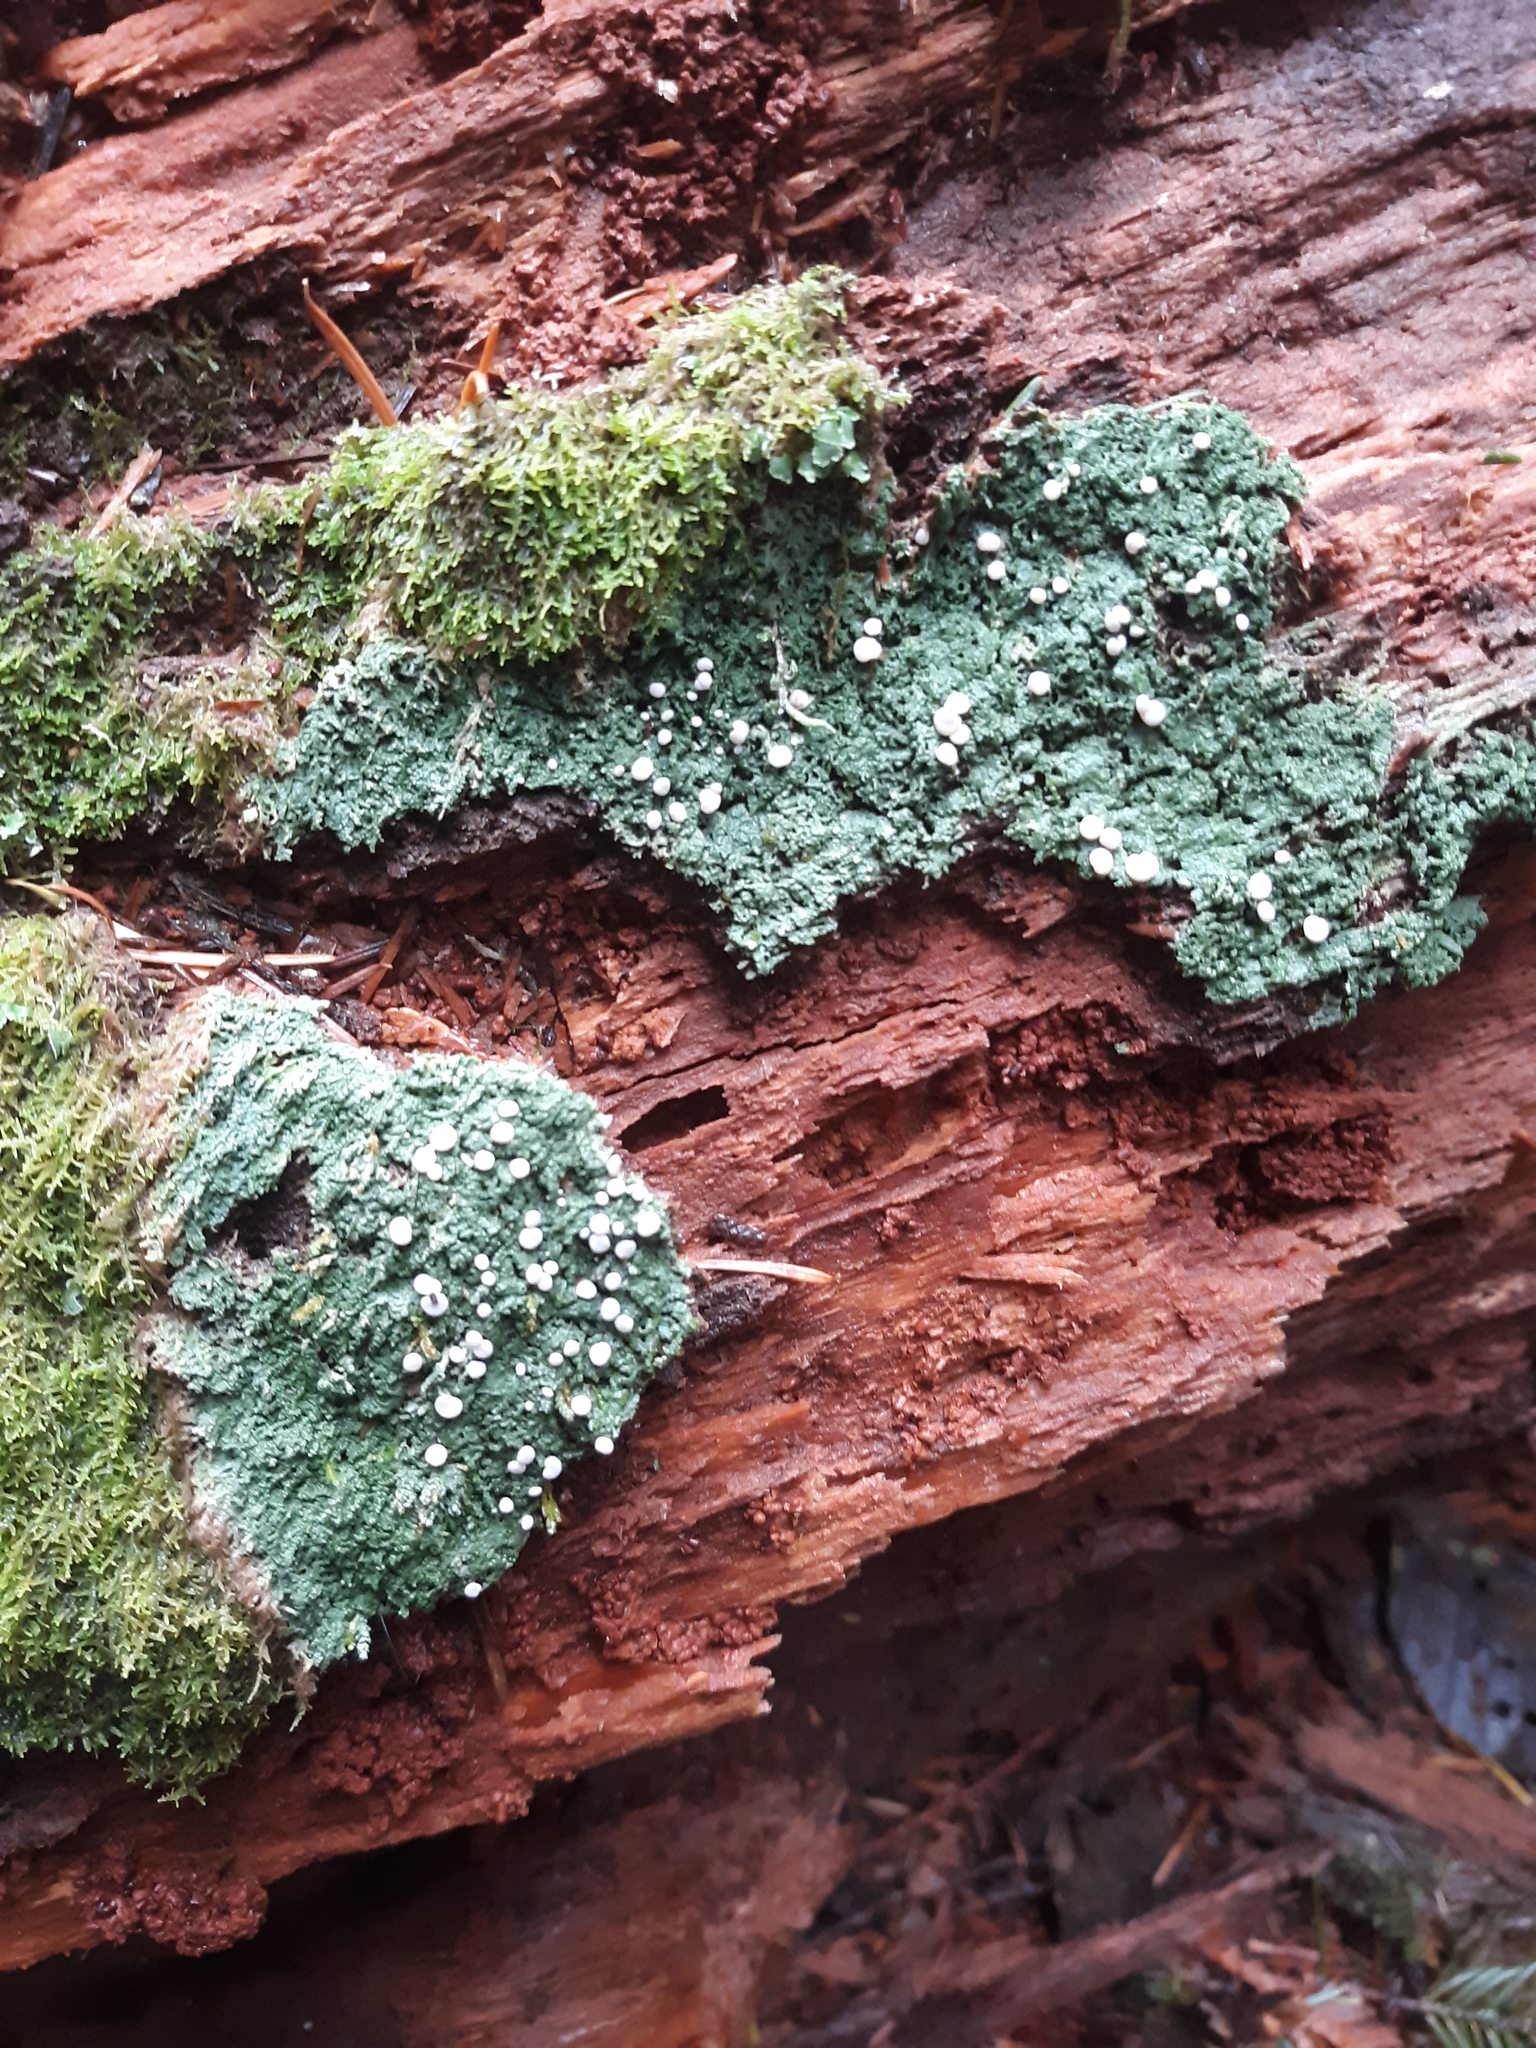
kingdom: Fungi
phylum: Ascomycota
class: Lecanoromycetes
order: Pertusariales
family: Icmadophilaceae
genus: Icmadophila
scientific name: Icmadophila ericetorum
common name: Candy lichen
